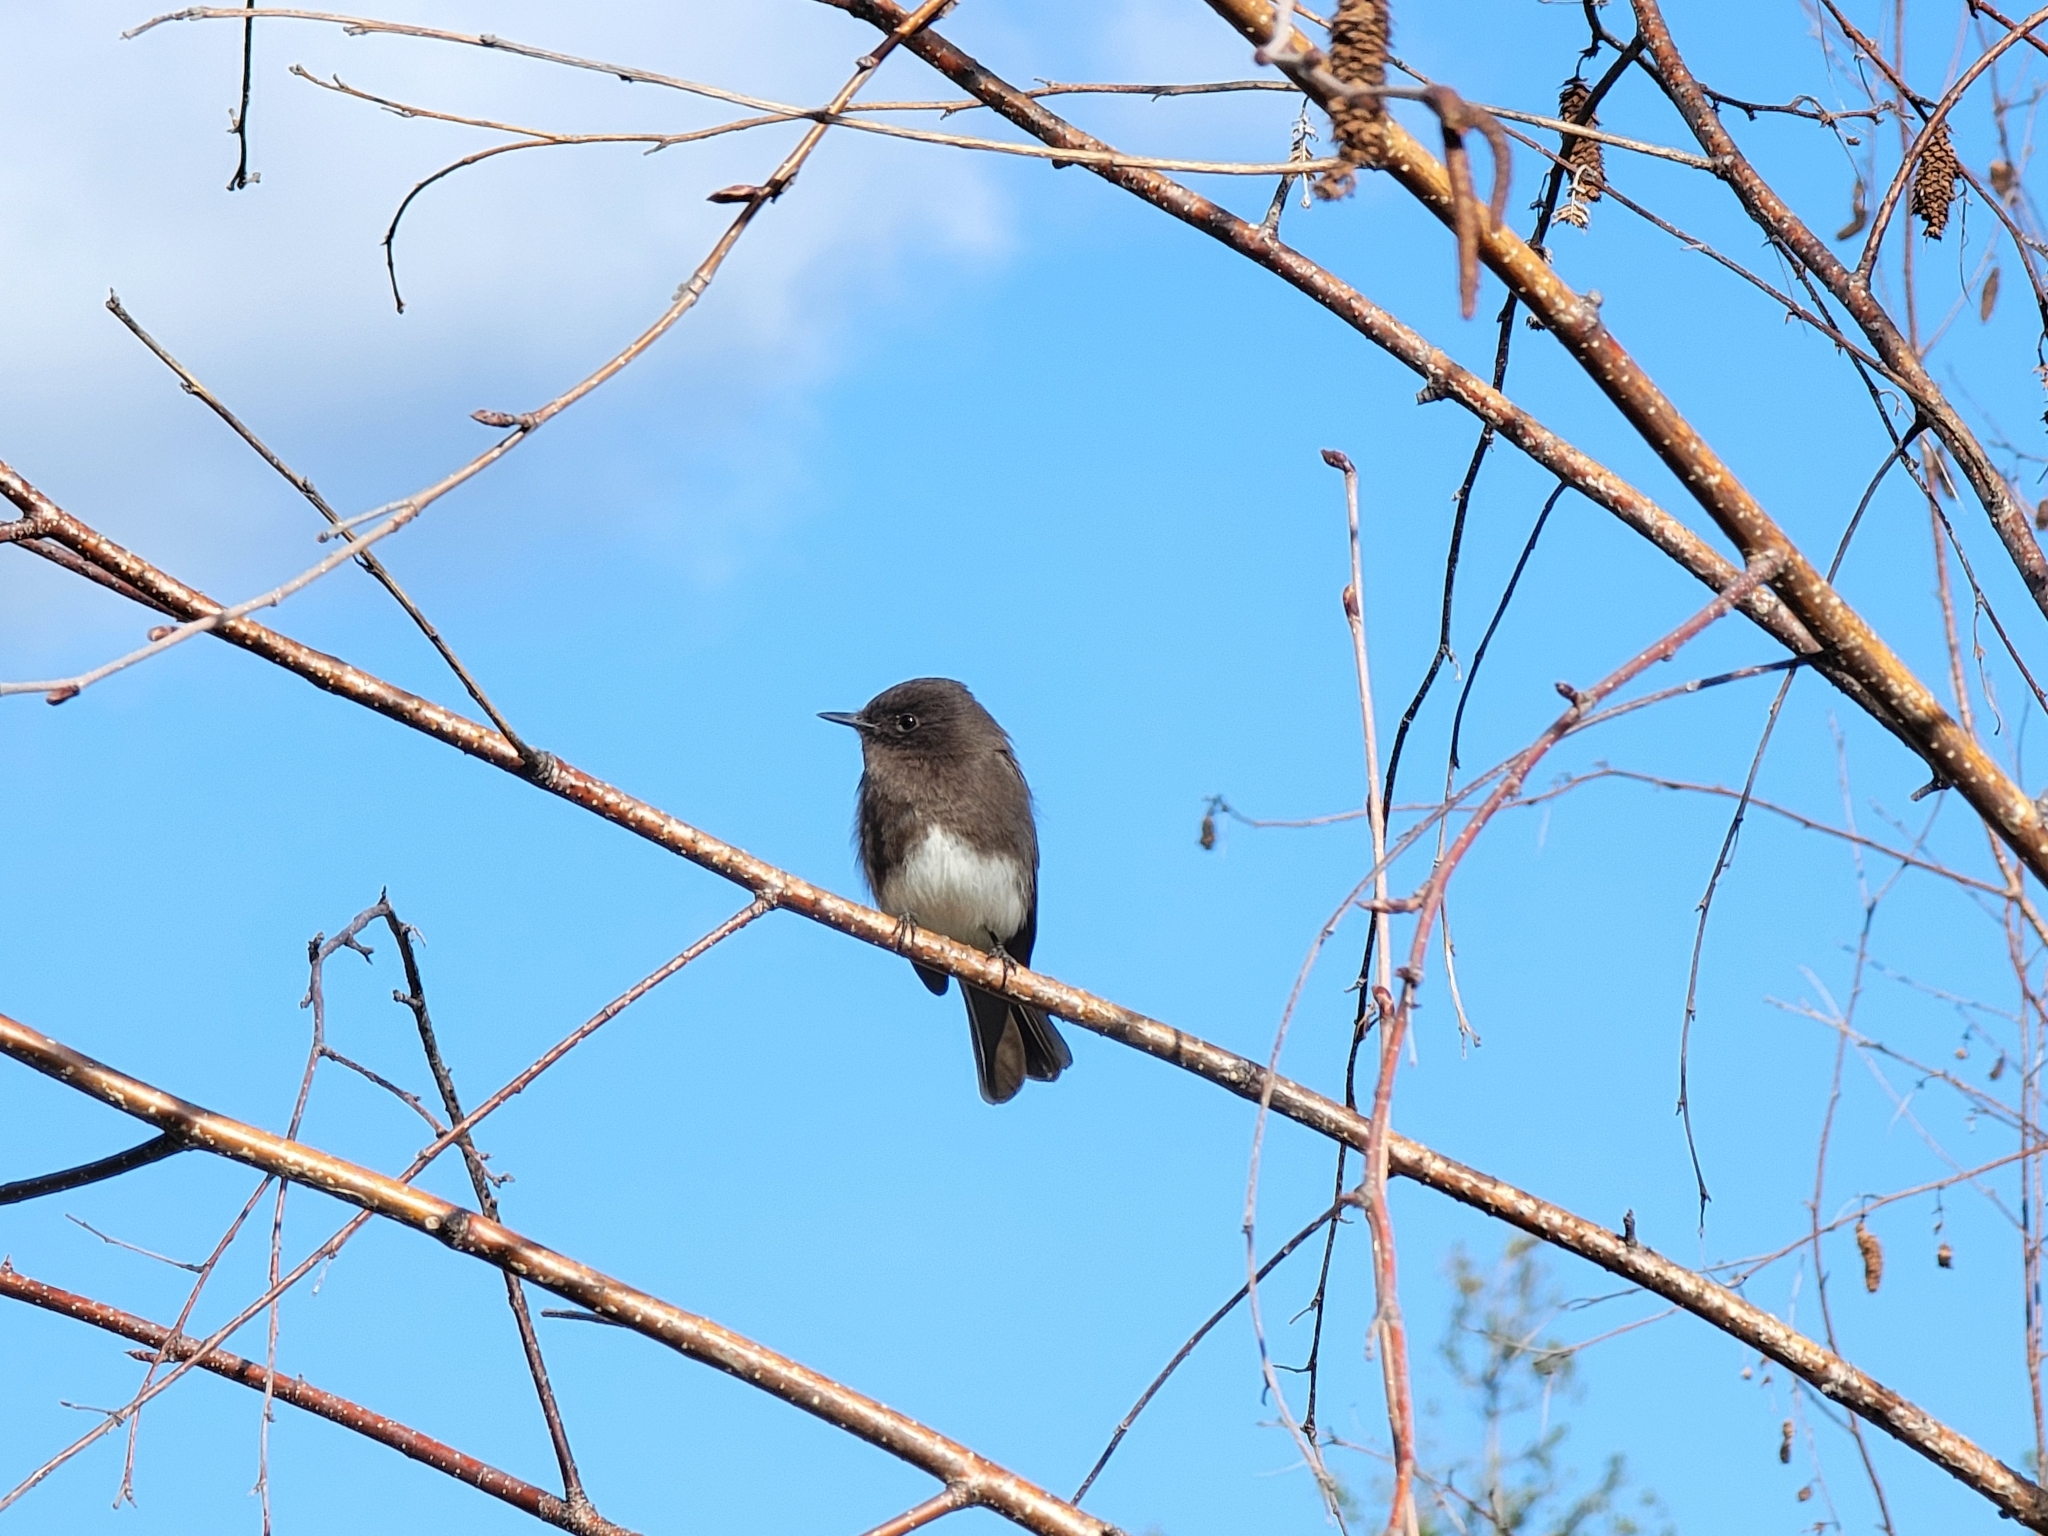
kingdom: Animalia
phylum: Chordata
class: Aves
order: Passeriformes
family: Tyrannidae
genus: Sayornis
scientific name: Sayornis nigricans
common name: Black phoebe
